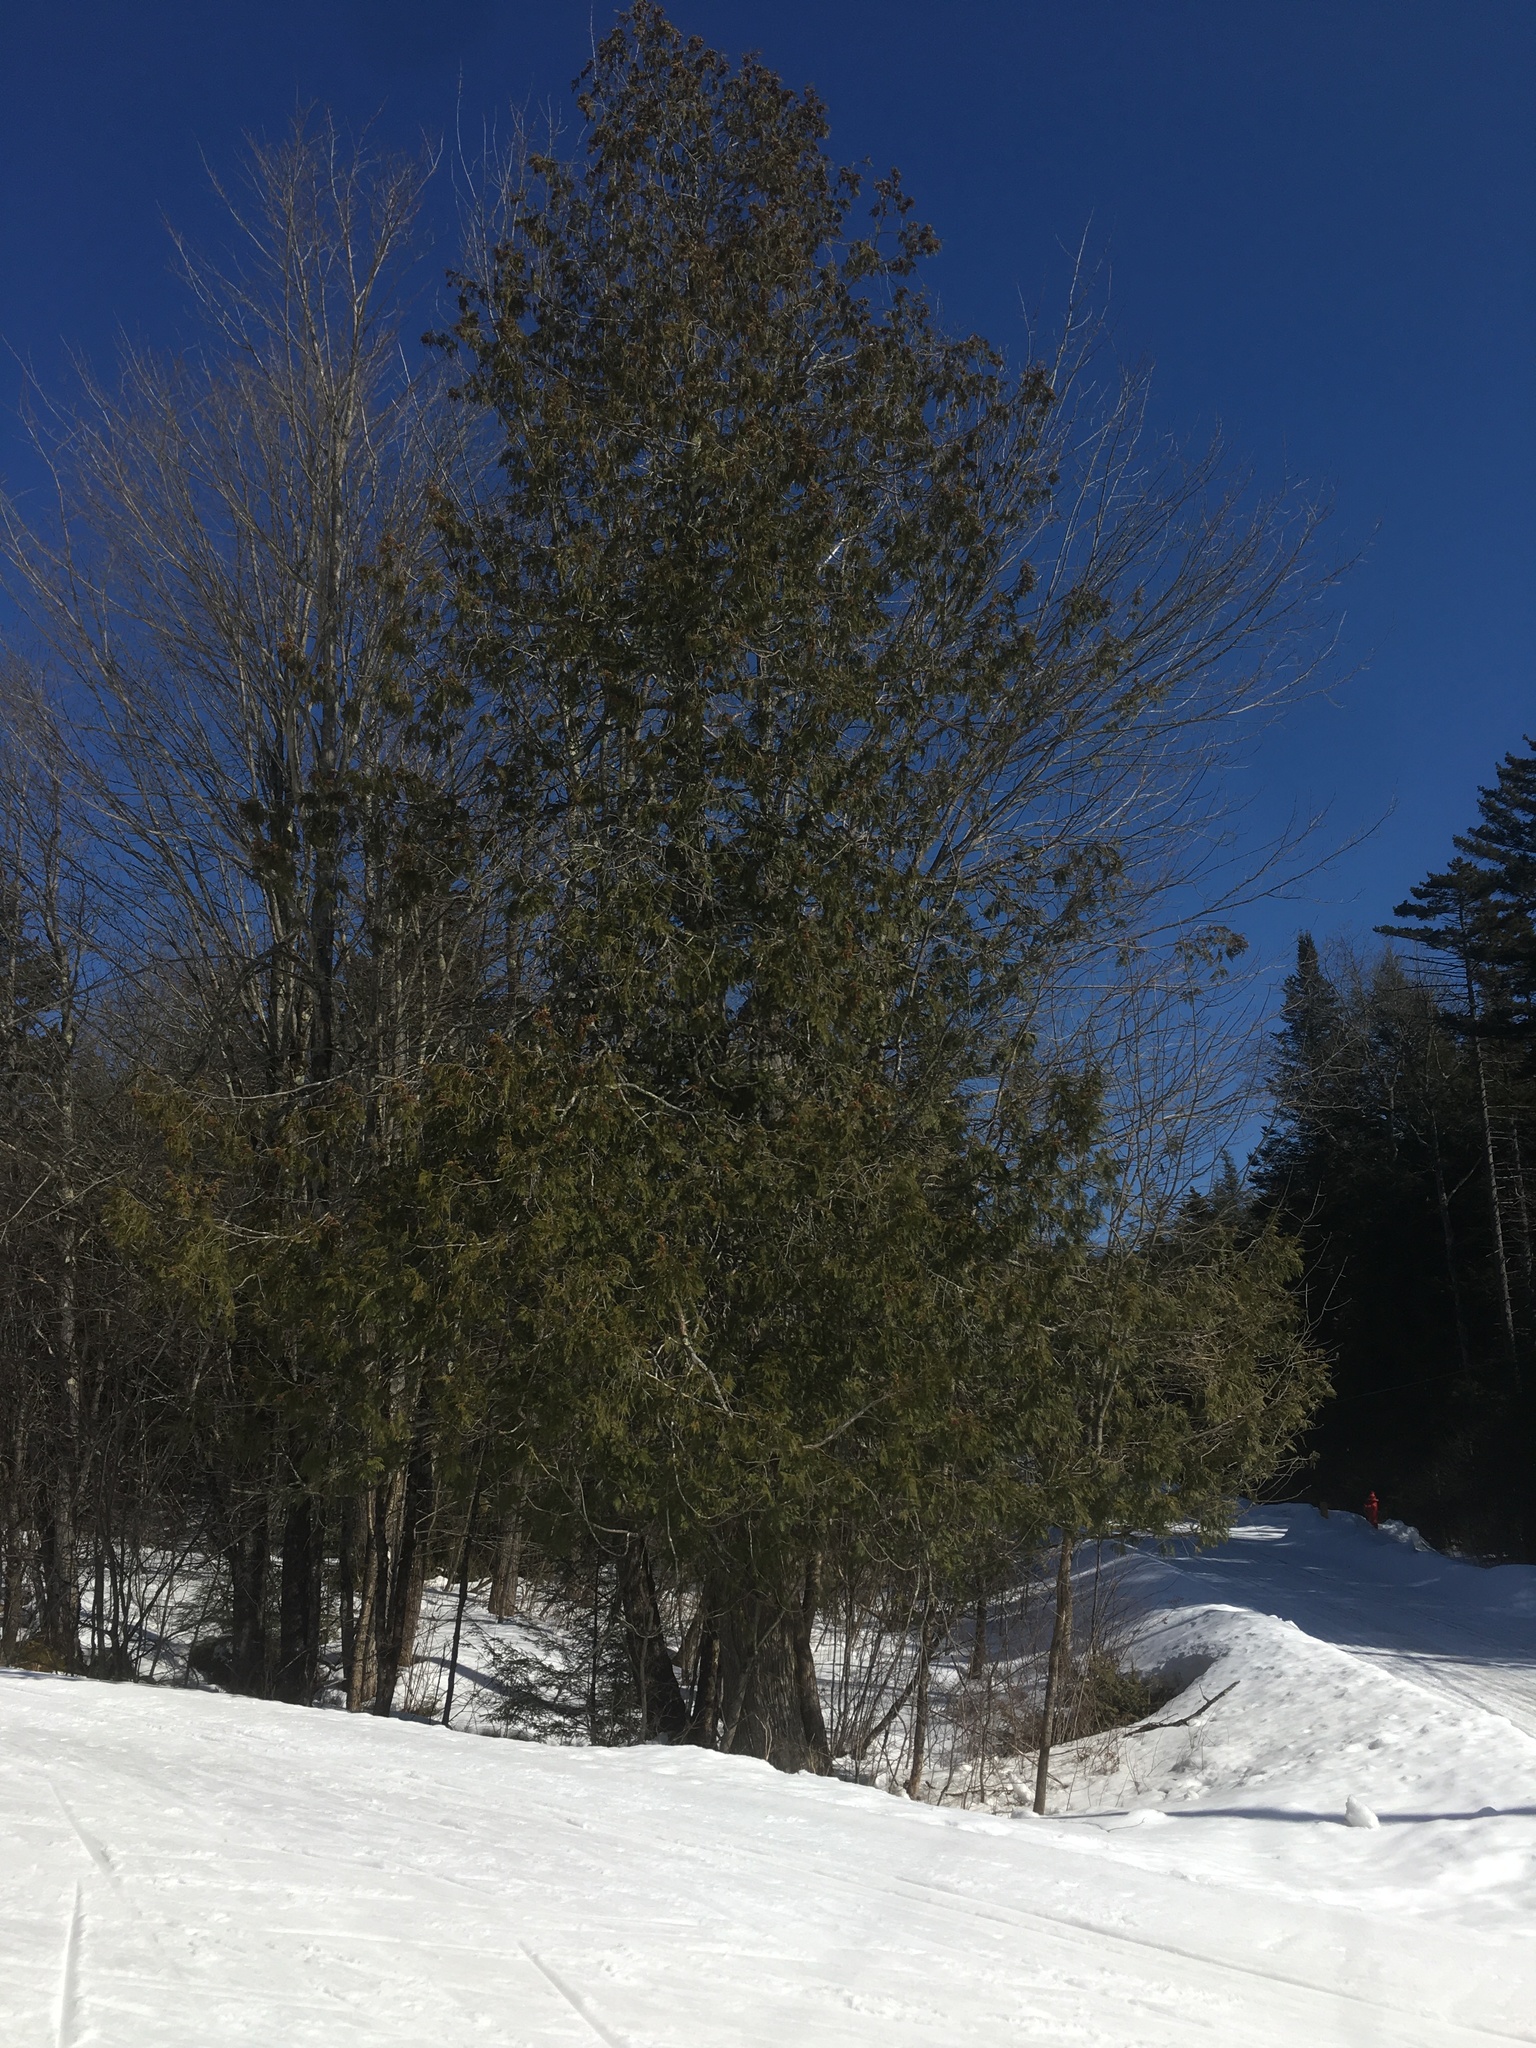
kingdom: Plantae
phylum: Tracheophyta
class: Pinopsida
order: Pinales
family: Cupressaceae
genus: Thuja
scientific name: Thuja occidentalis
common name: Northern white-cedar
